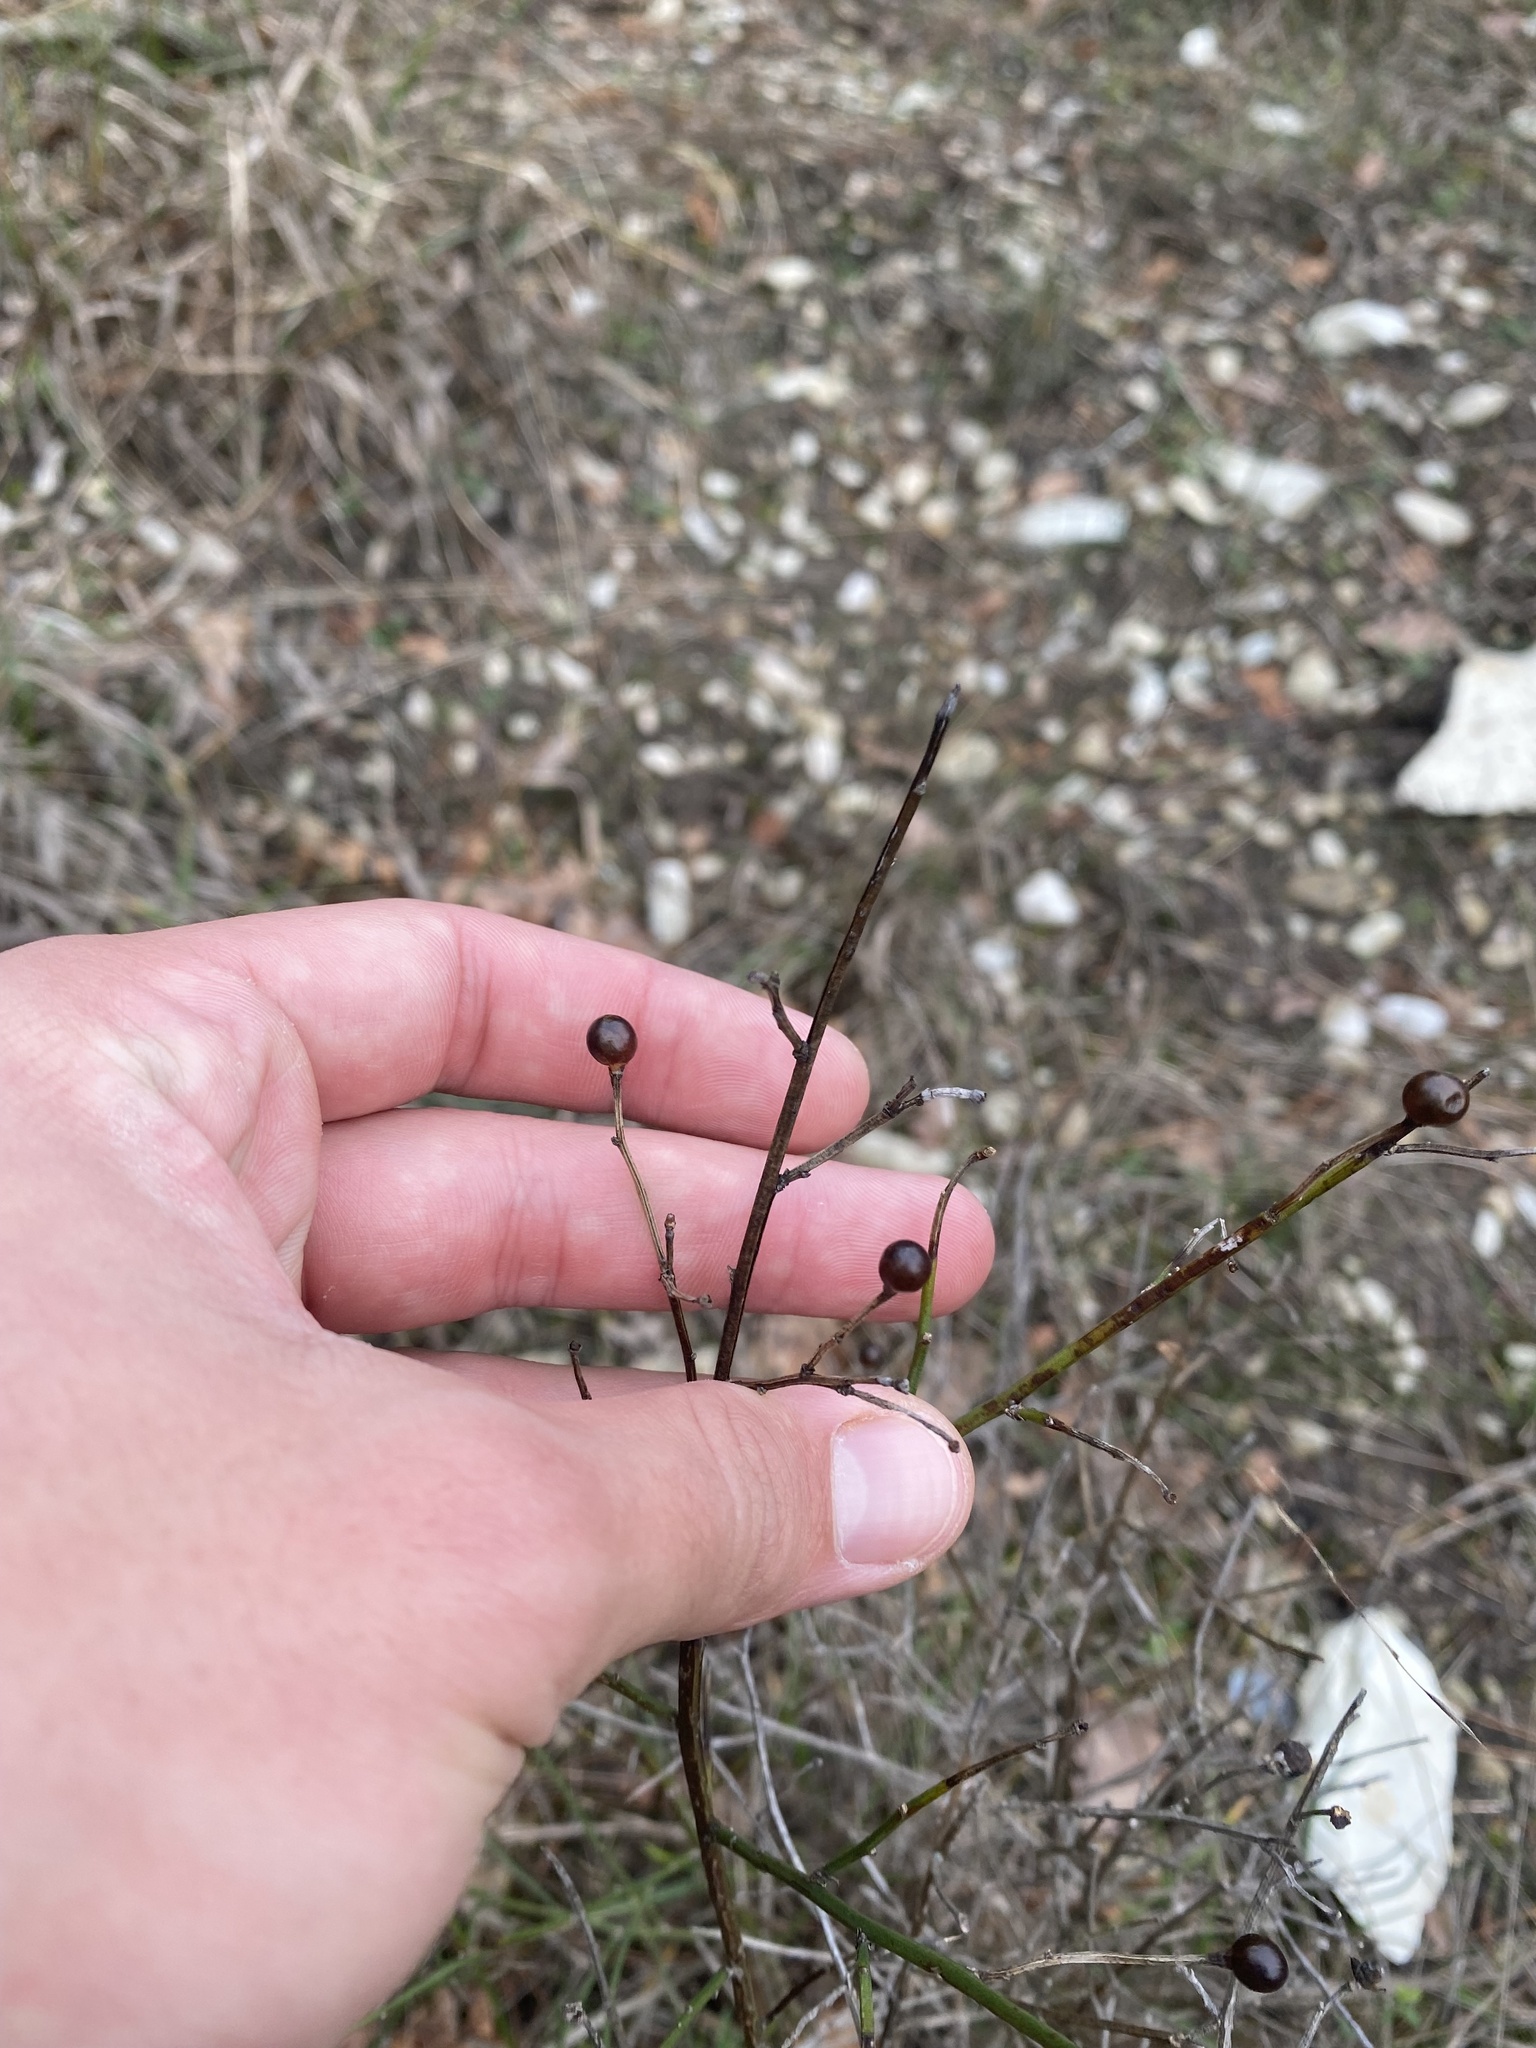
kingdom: Plantae
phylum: Tracheophyta
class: Magnoliopsida
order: Lamiales
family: Oleaceae
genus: Chrysojasminum
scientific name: Chrysojasminum fruticans
